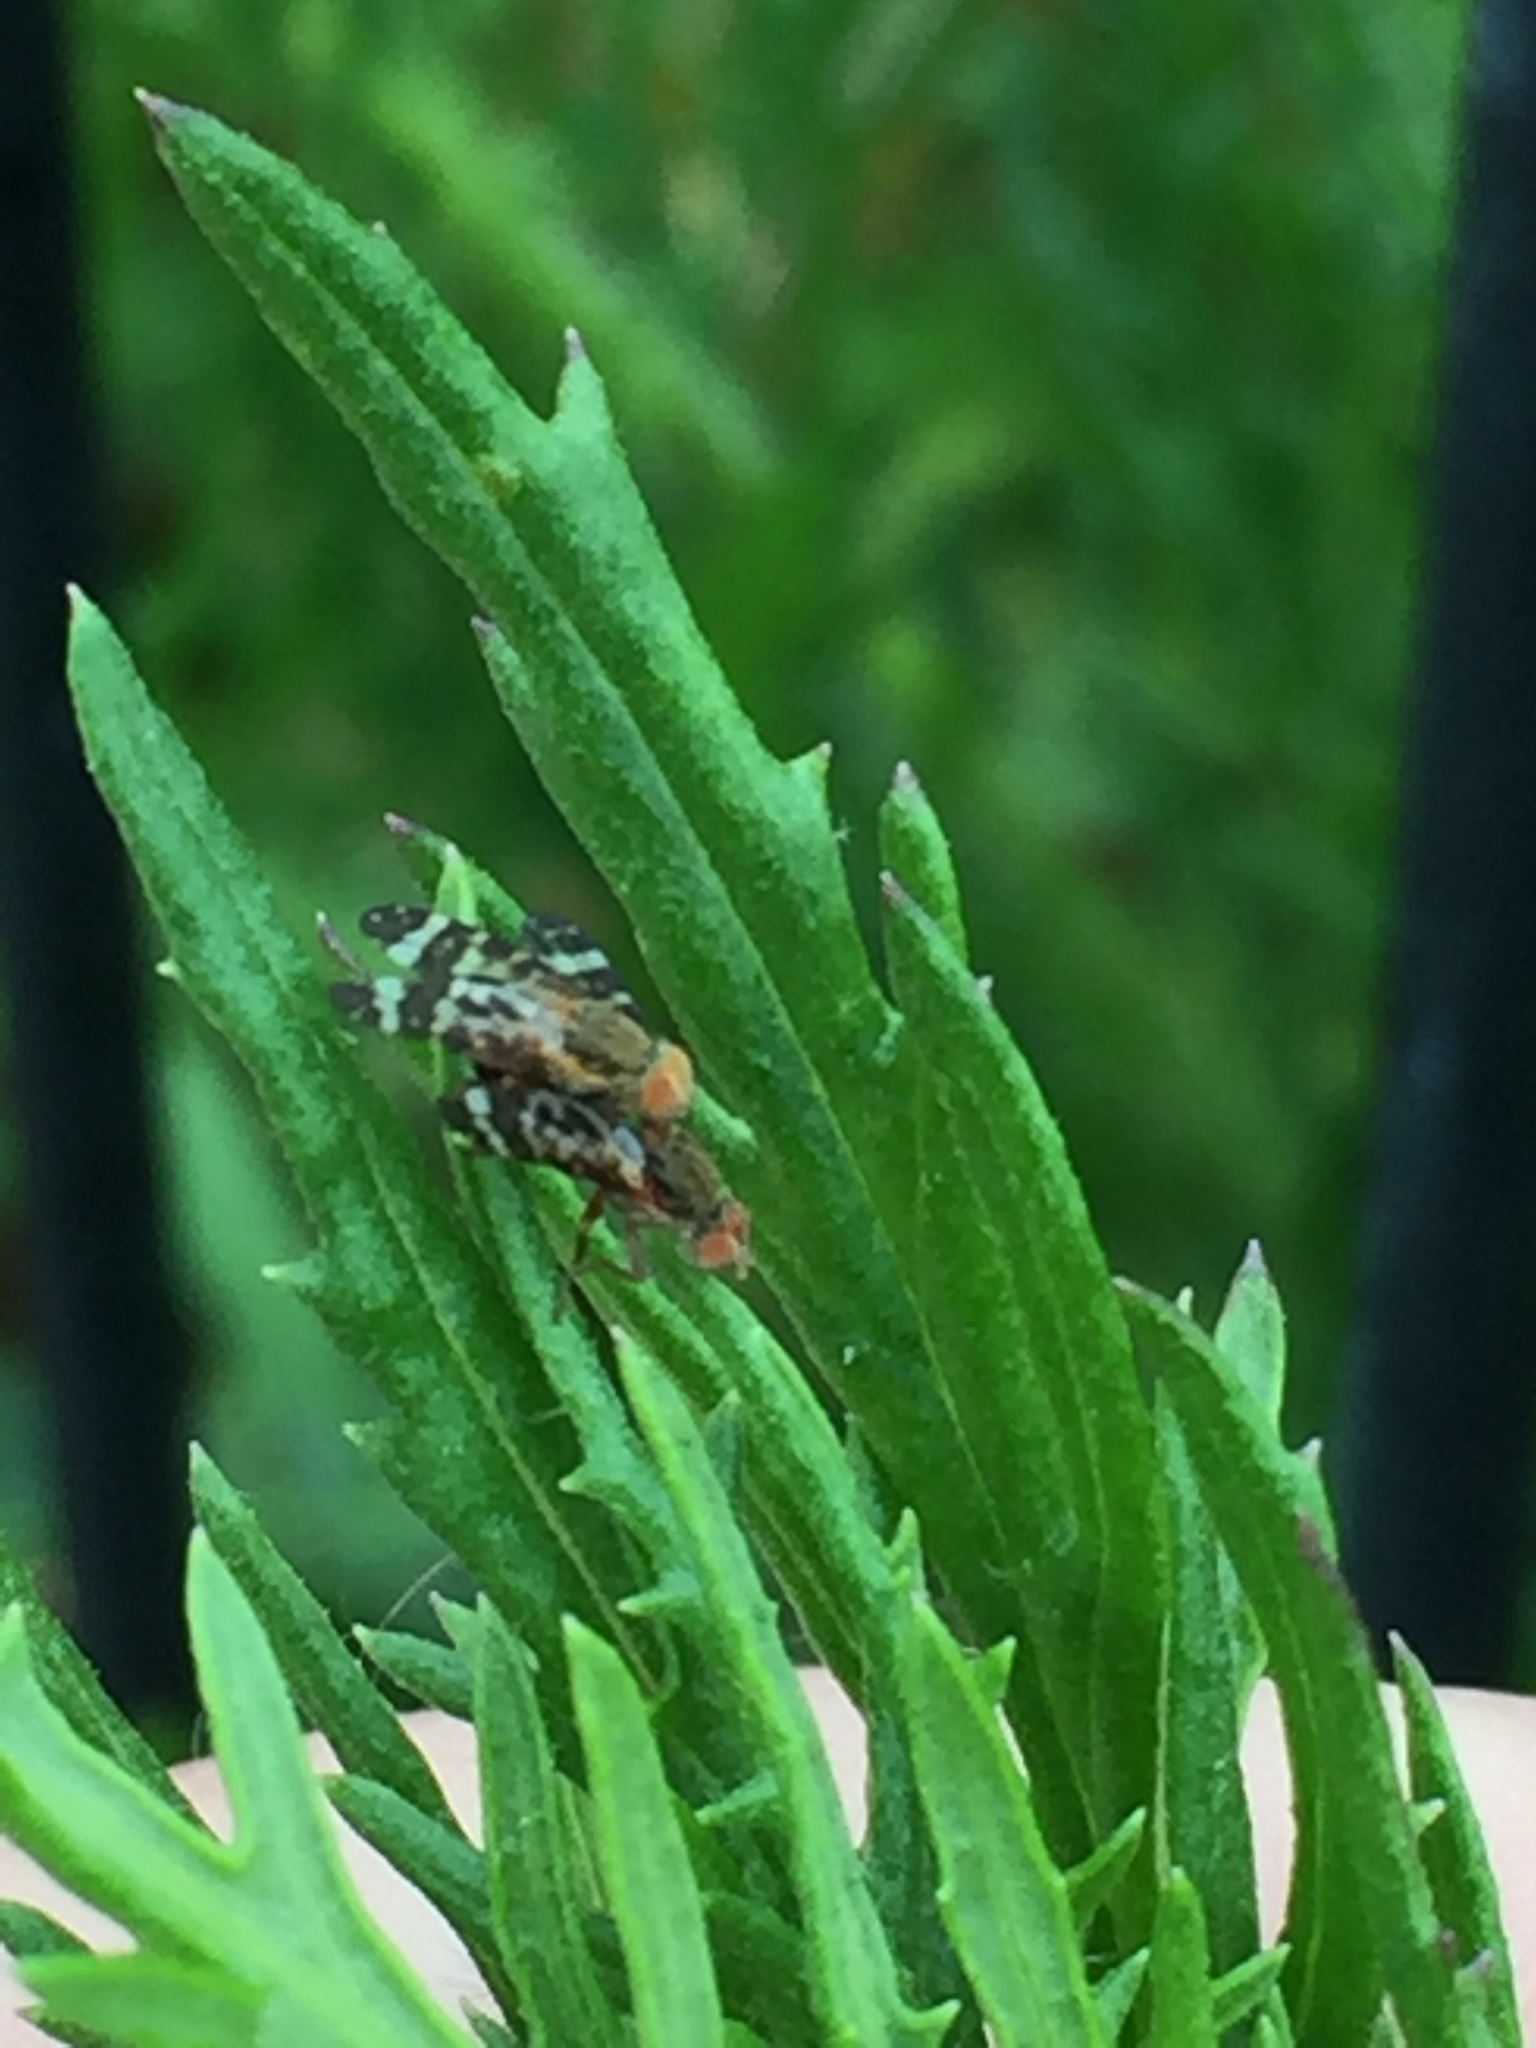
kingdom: Animalia
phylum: Arthropoda
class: Insecta
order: Diptera
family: Tephritidae
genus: Sphenella
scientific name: Sphenella
